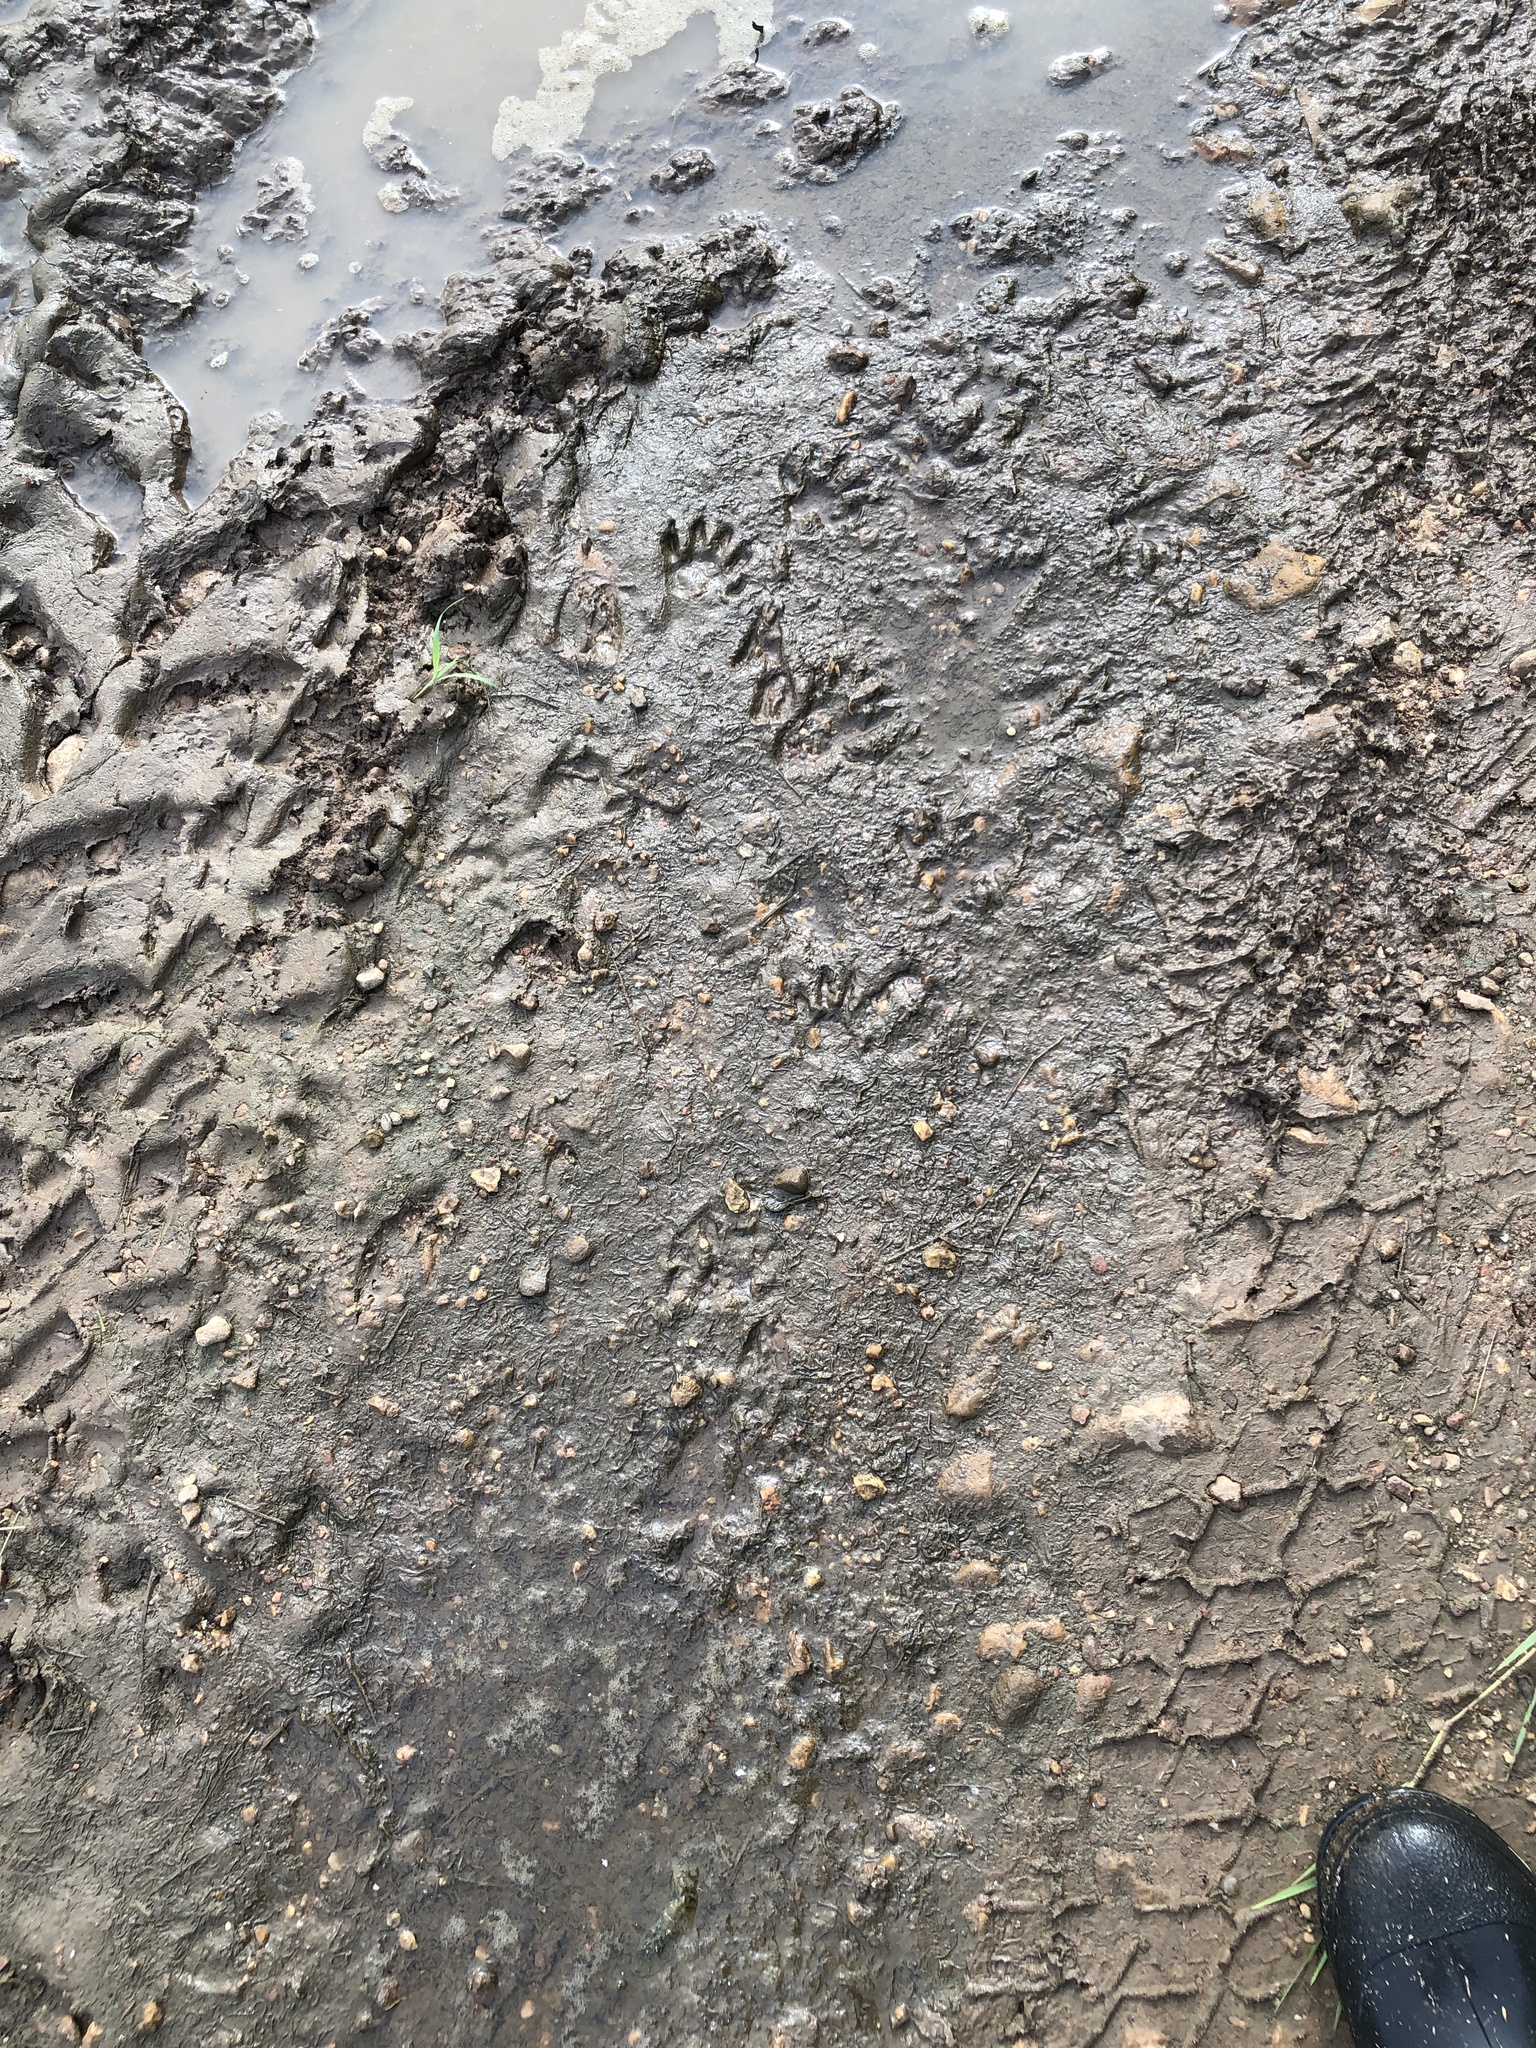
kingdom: Animalia
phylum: Chordata
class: Mammalia
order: Carnivora
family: Procyonidae
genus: Procyon
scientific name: Procyon lotor
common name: Raccoon
